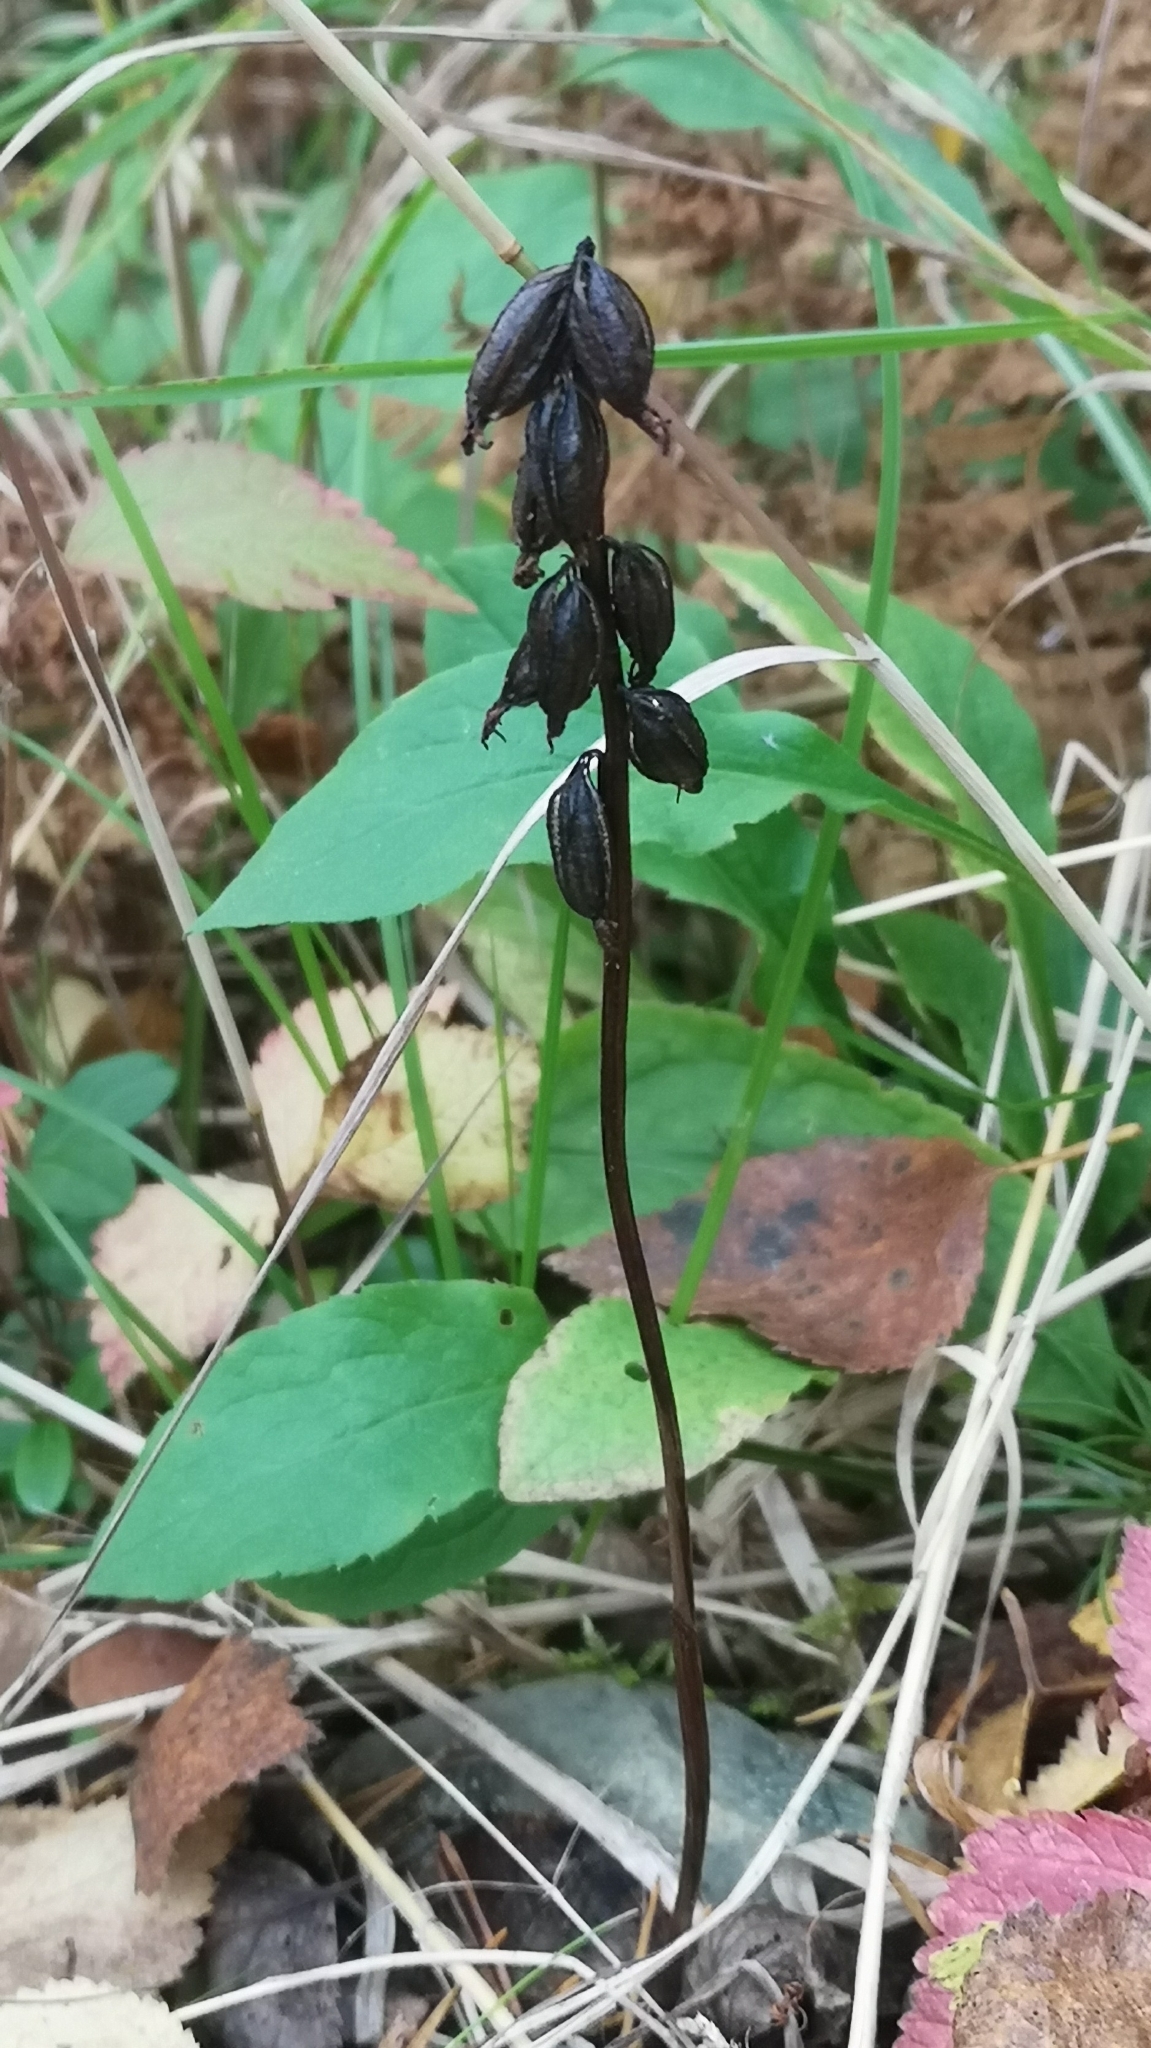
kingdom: Plantae
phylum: Tracheophyta
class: Liliopsida
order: Asparagales
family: Orchidaceae
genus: Corallorhiza
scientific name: Corallorhiza trifida
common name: Yellow coralroot
